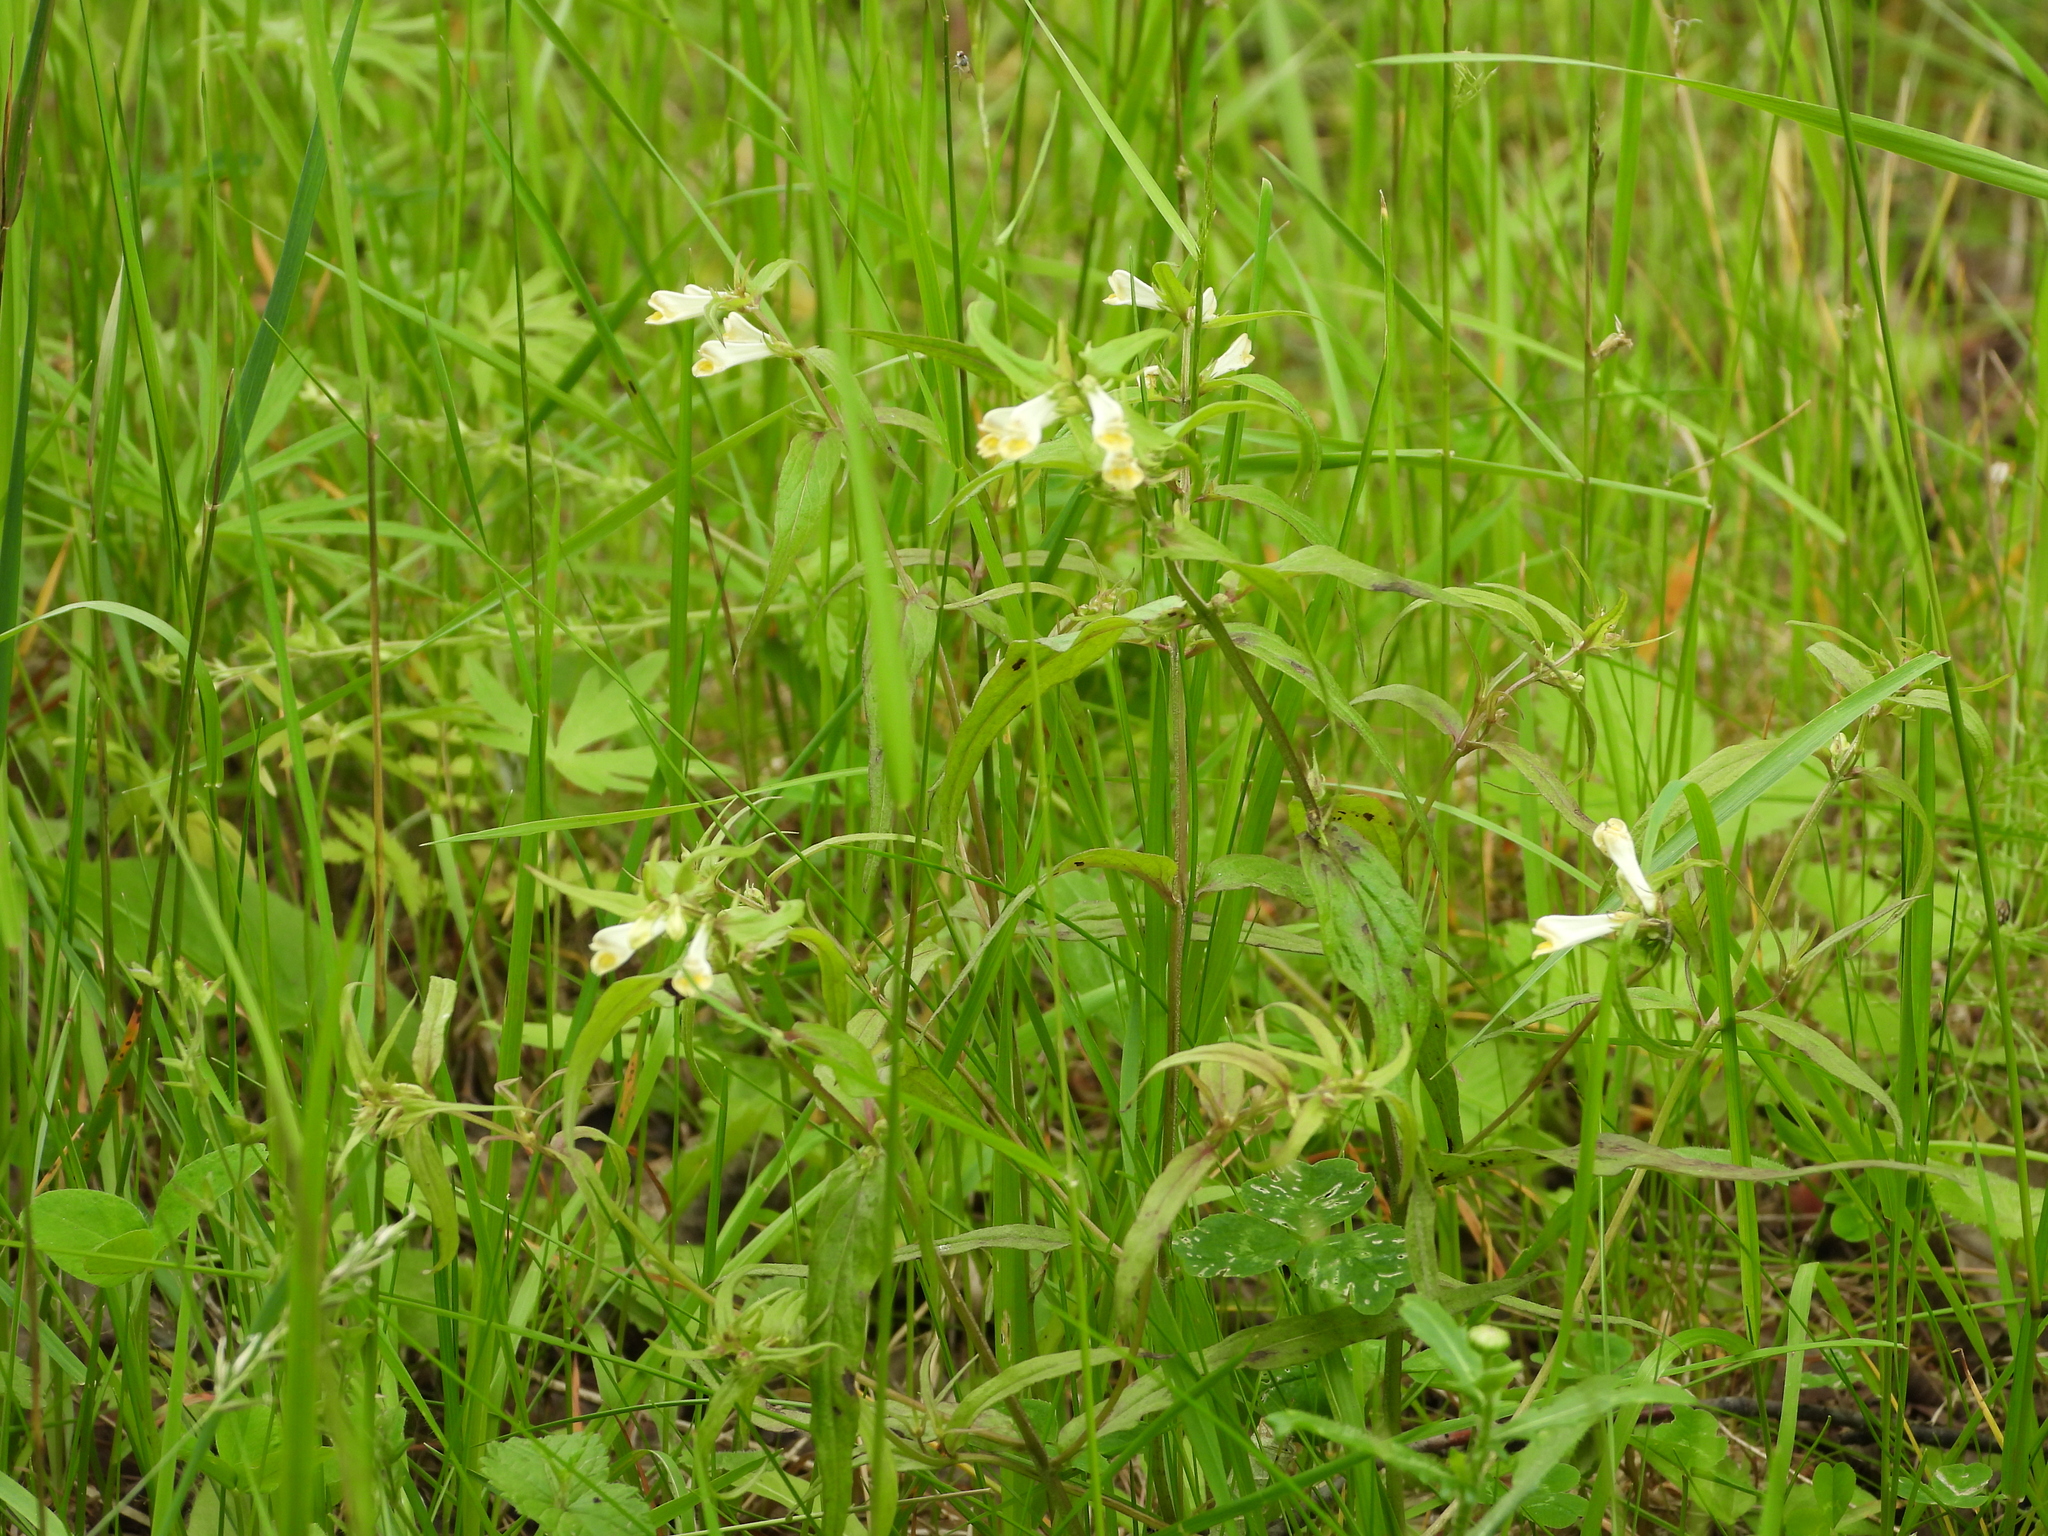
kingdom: Plantae
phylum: Tracheophyta
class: Magnoliopsida
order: Lamiales
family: Orobanchaceae
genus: Melampyrum
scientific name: Melampyrum pratense
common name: Common cow-wheat
